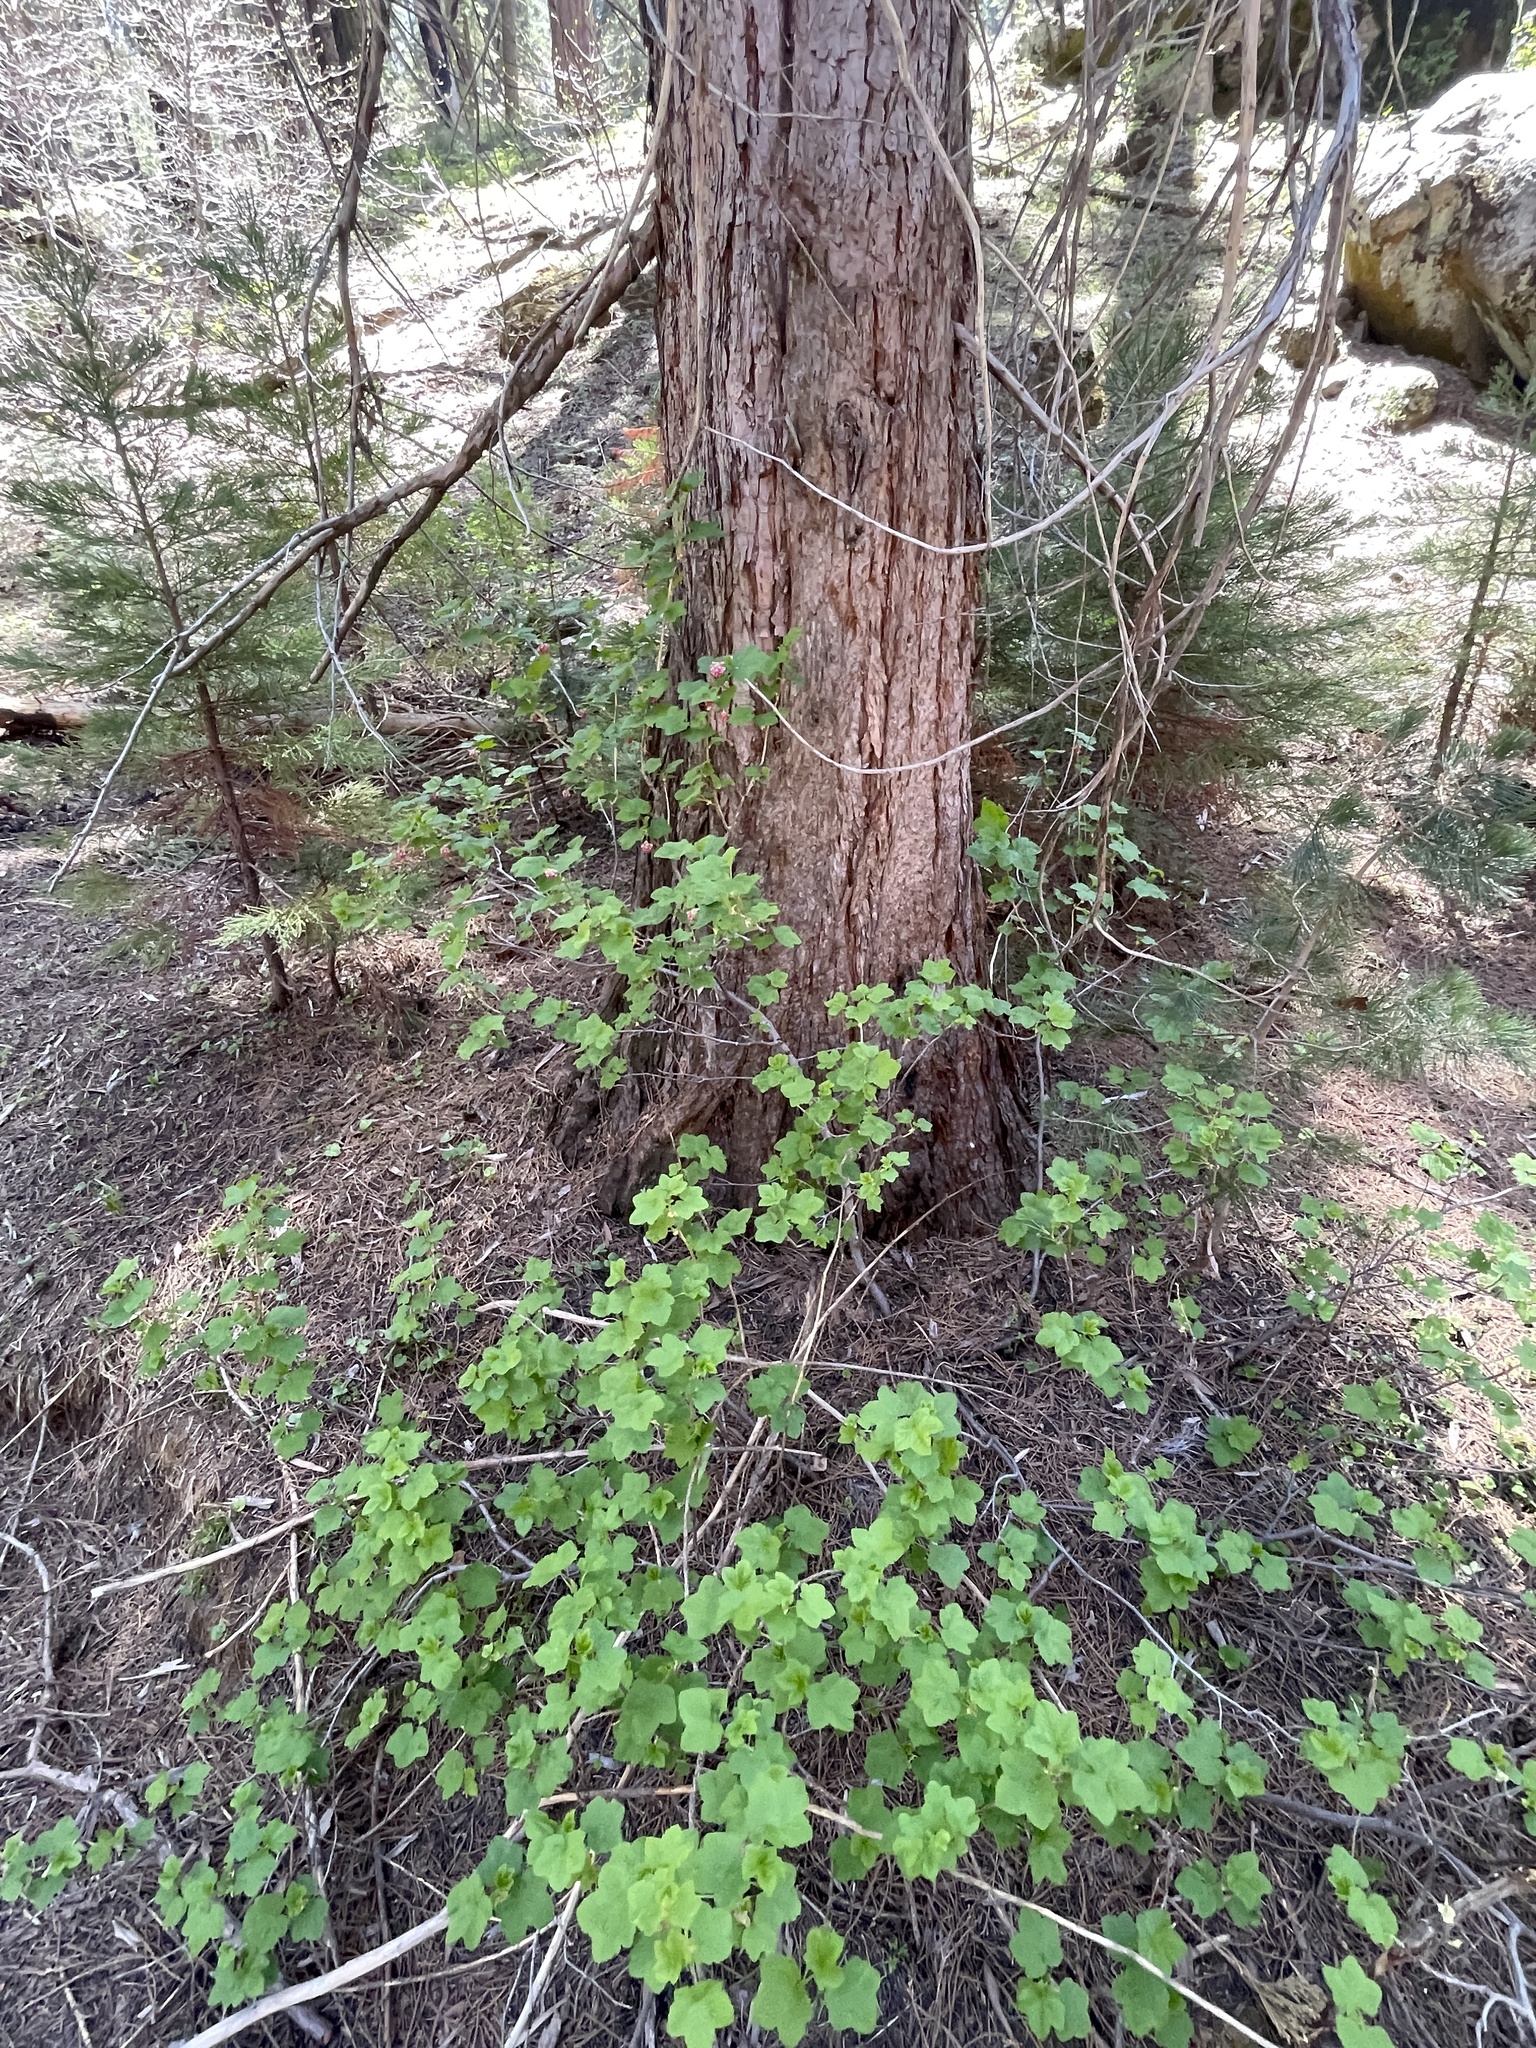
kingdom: Plantae
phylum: Tracheophyta
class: Magnoliopsida
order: Saxifragales
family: Grossulariaceae
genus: Ribes
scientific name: Ribes nevadense
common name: Mountain pink currant
